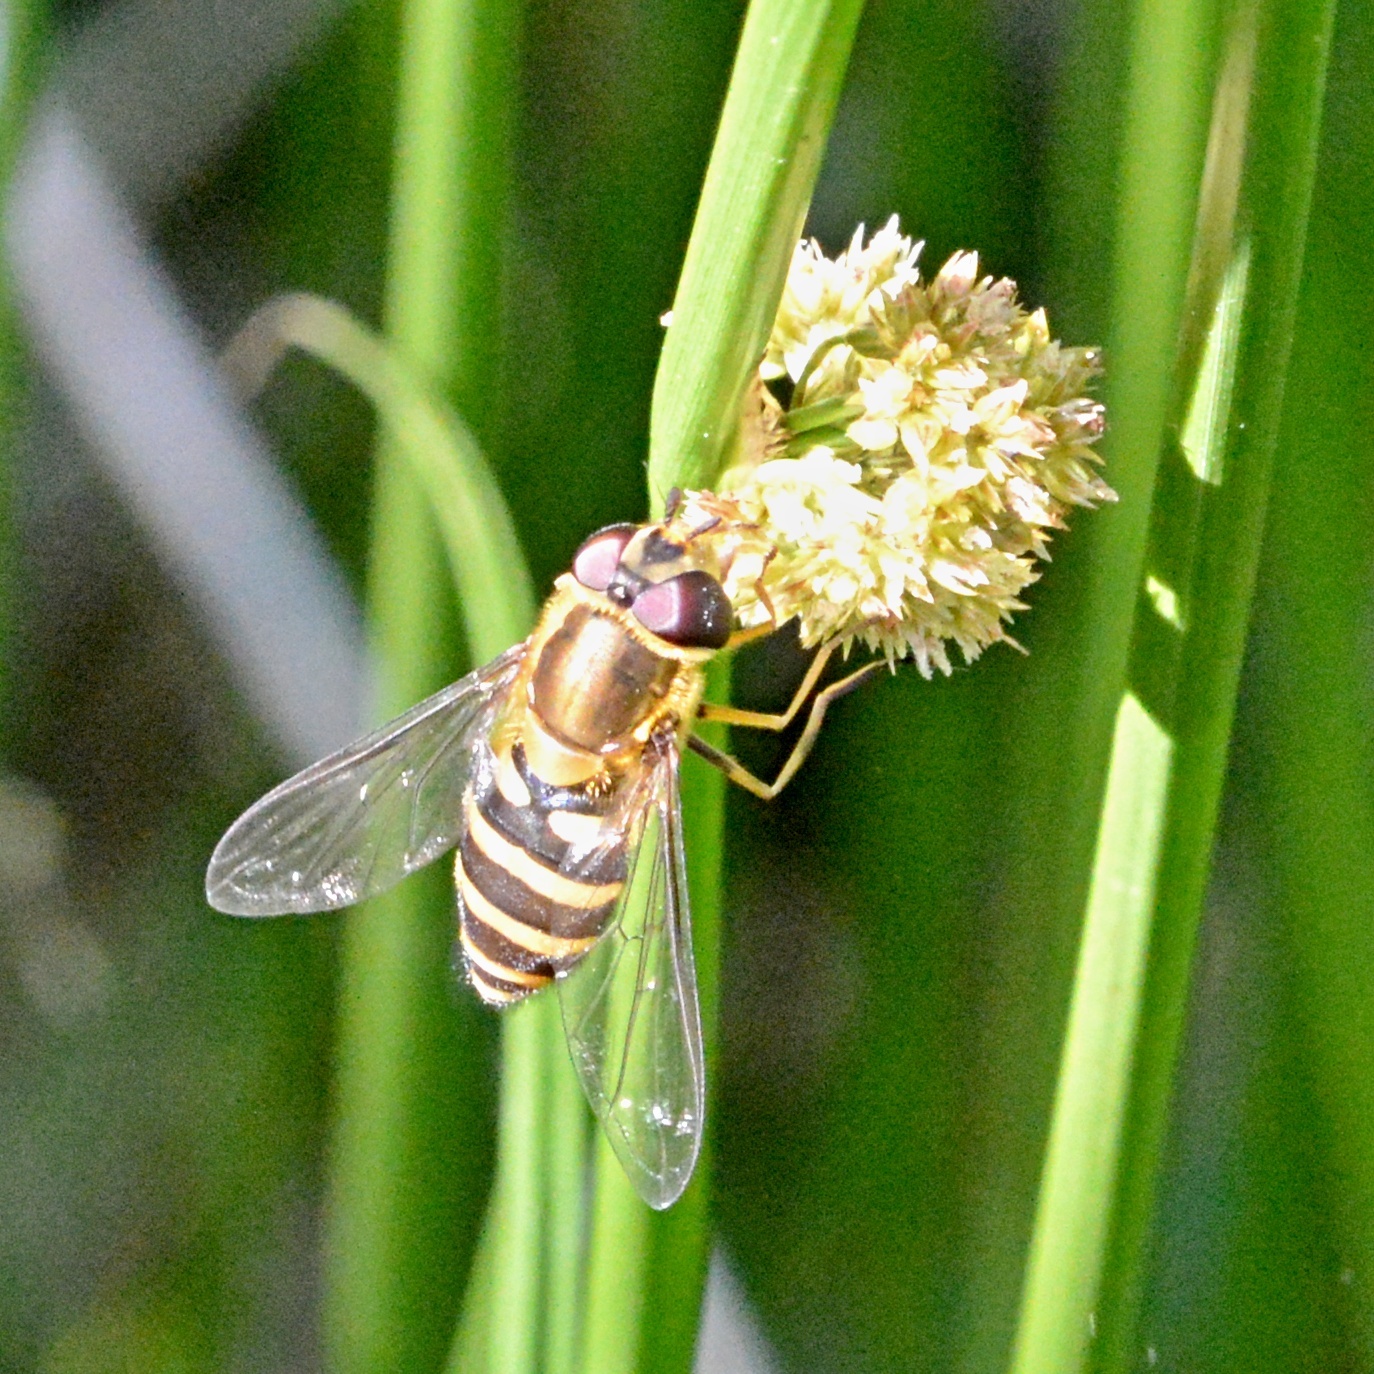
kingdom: Animalia
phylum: Arthropoda
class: Insecta
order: Diptera
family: Syrphidae
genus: Syrphus
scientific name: Syrphus torvus
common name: Hairy-eyed flower fly
